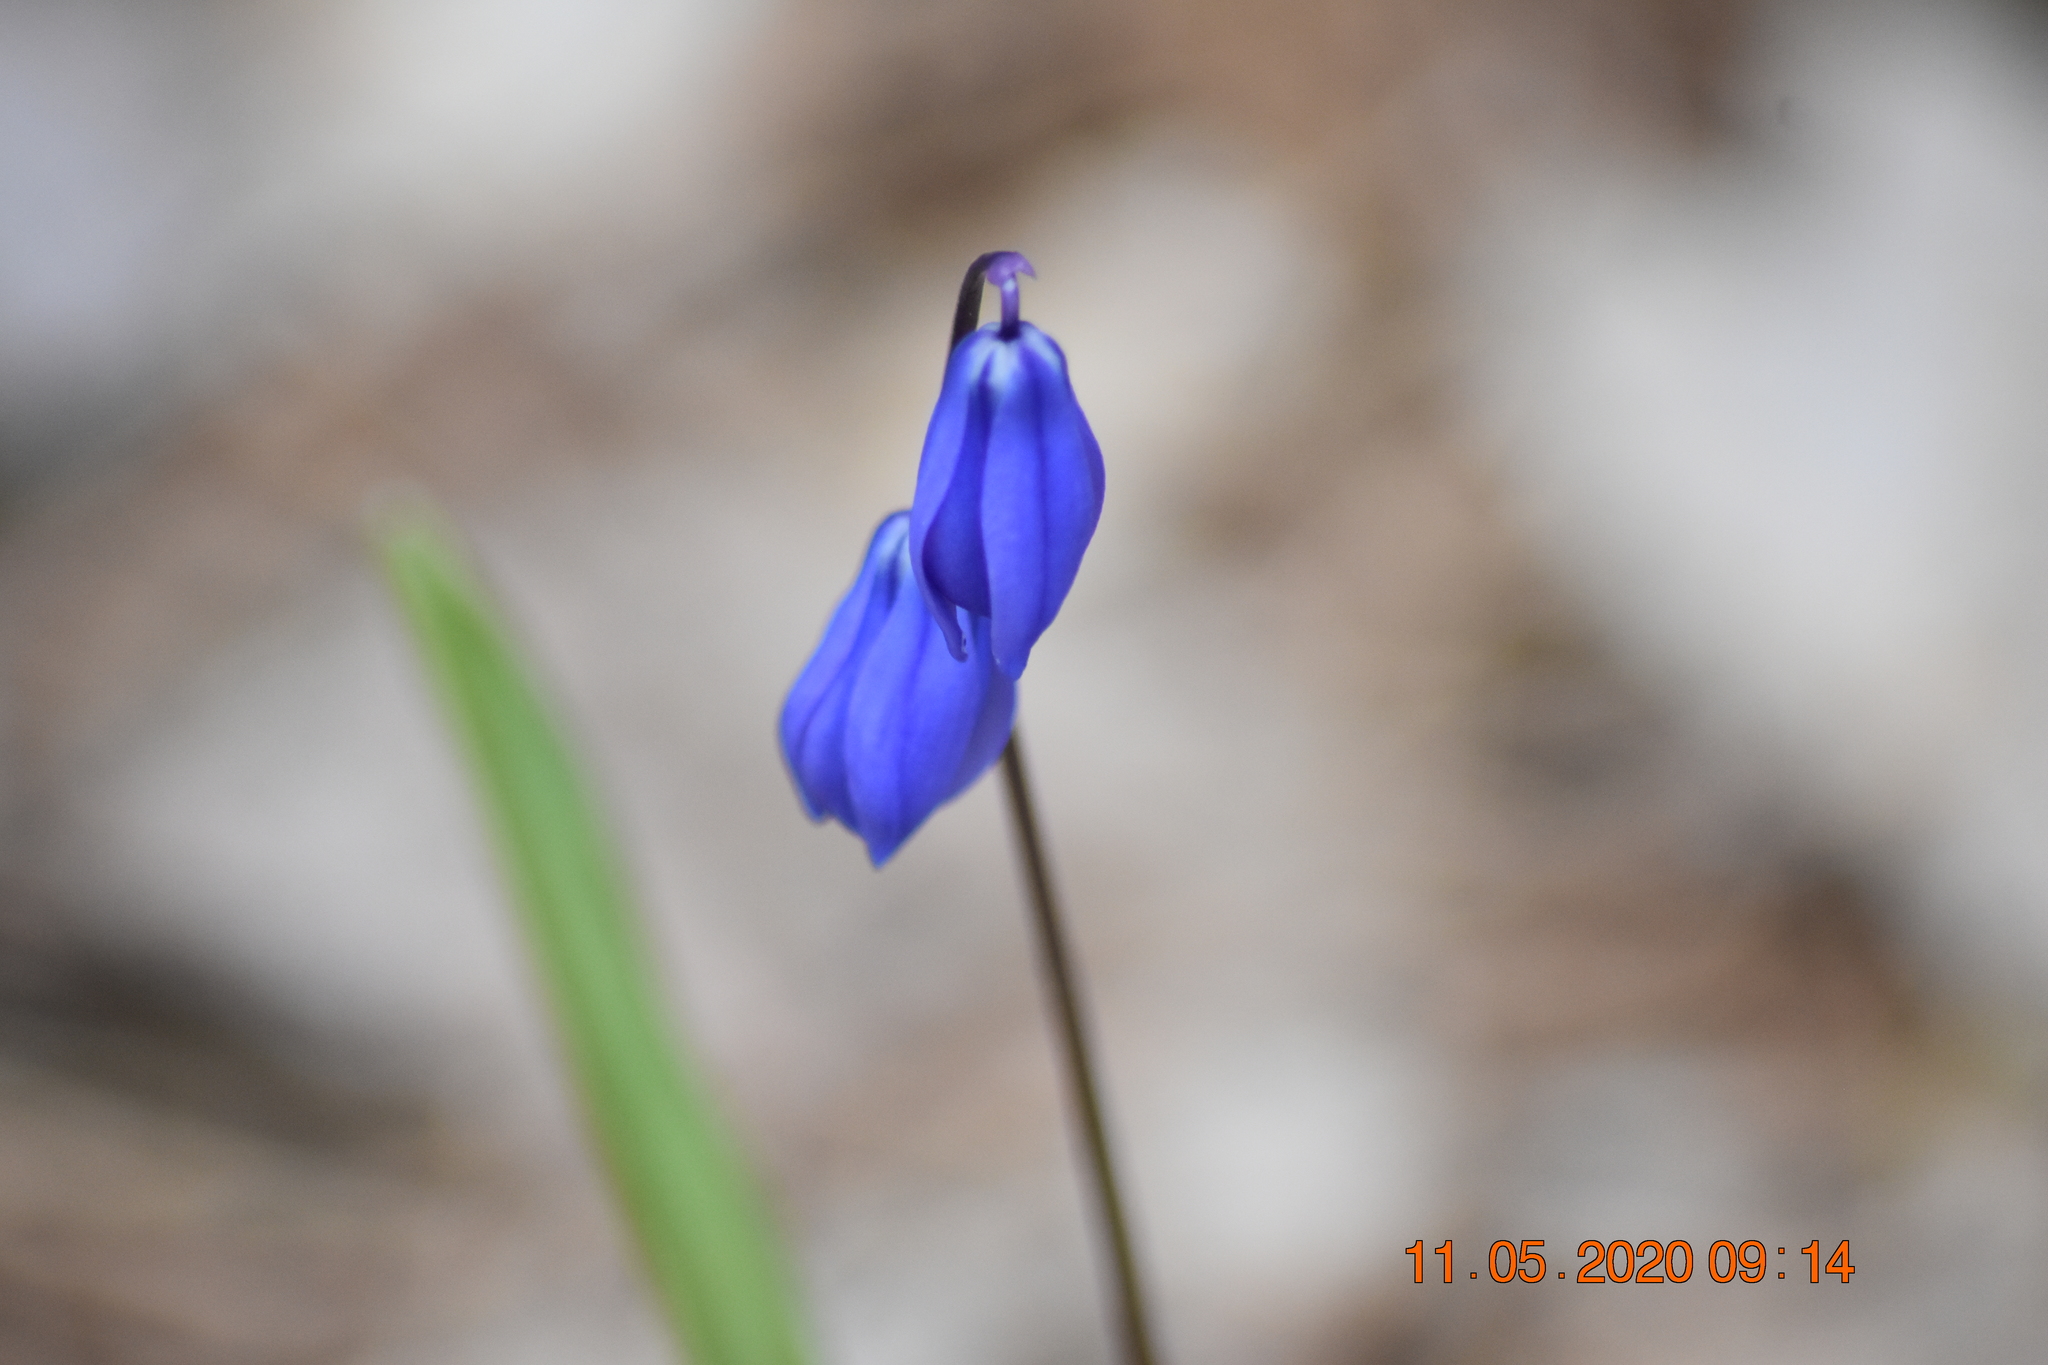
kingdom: Plantae
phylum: Tracheophyta
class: Liliopsida
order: Asparagales
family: Asparagaceae
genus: Scilla
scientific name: Scilla siberica
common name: Siberian squill
